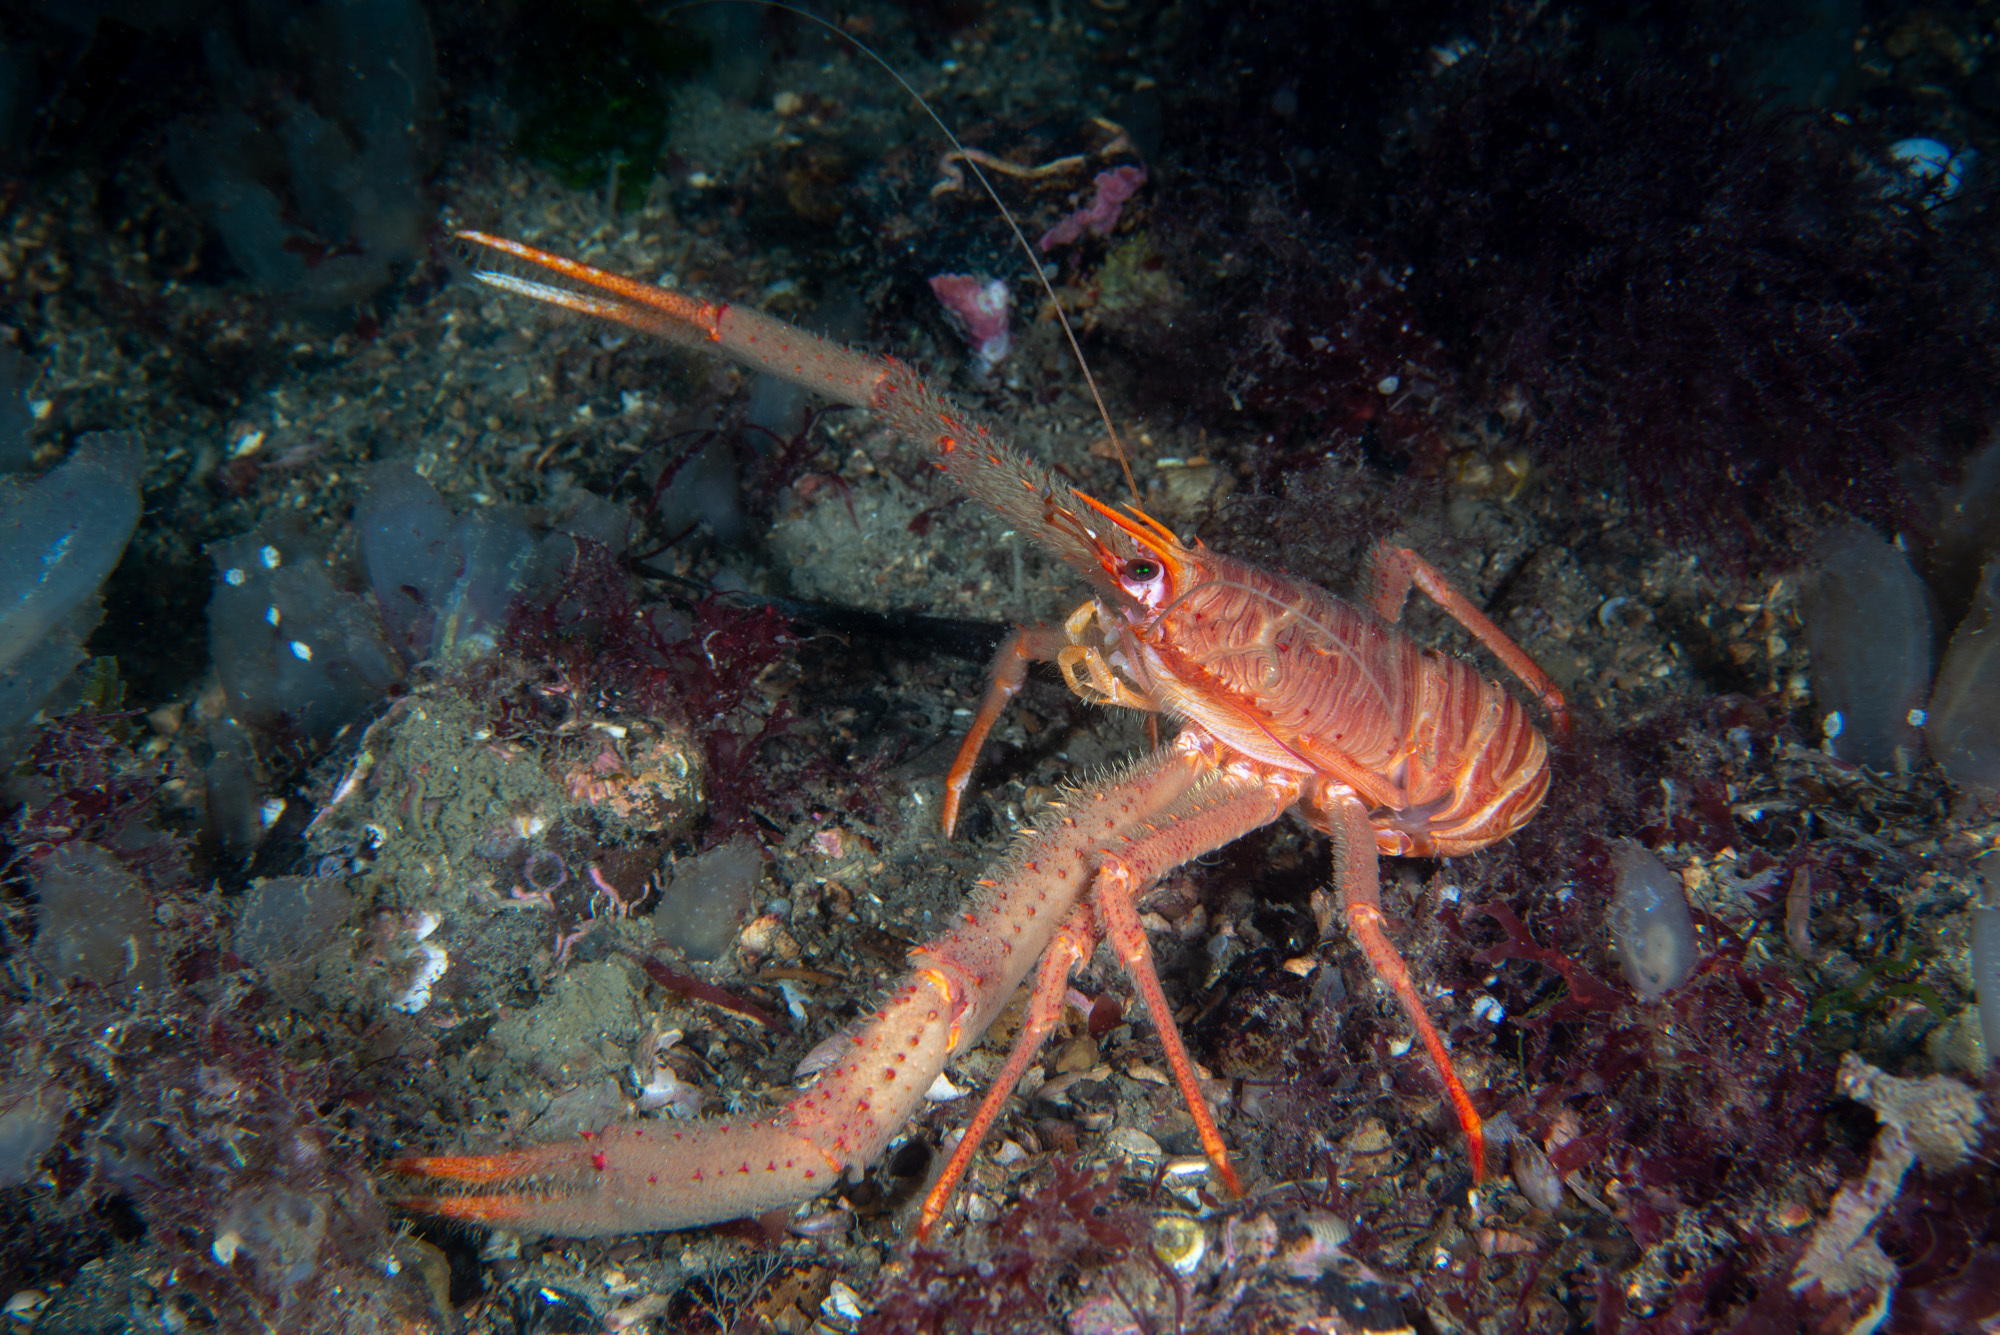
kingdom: Animalia
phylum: Arthropoda
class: Malacostraca
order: Decapoda
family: Munididae
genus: Munida
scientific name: Munida rugosa
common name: Rugose squat lobster
